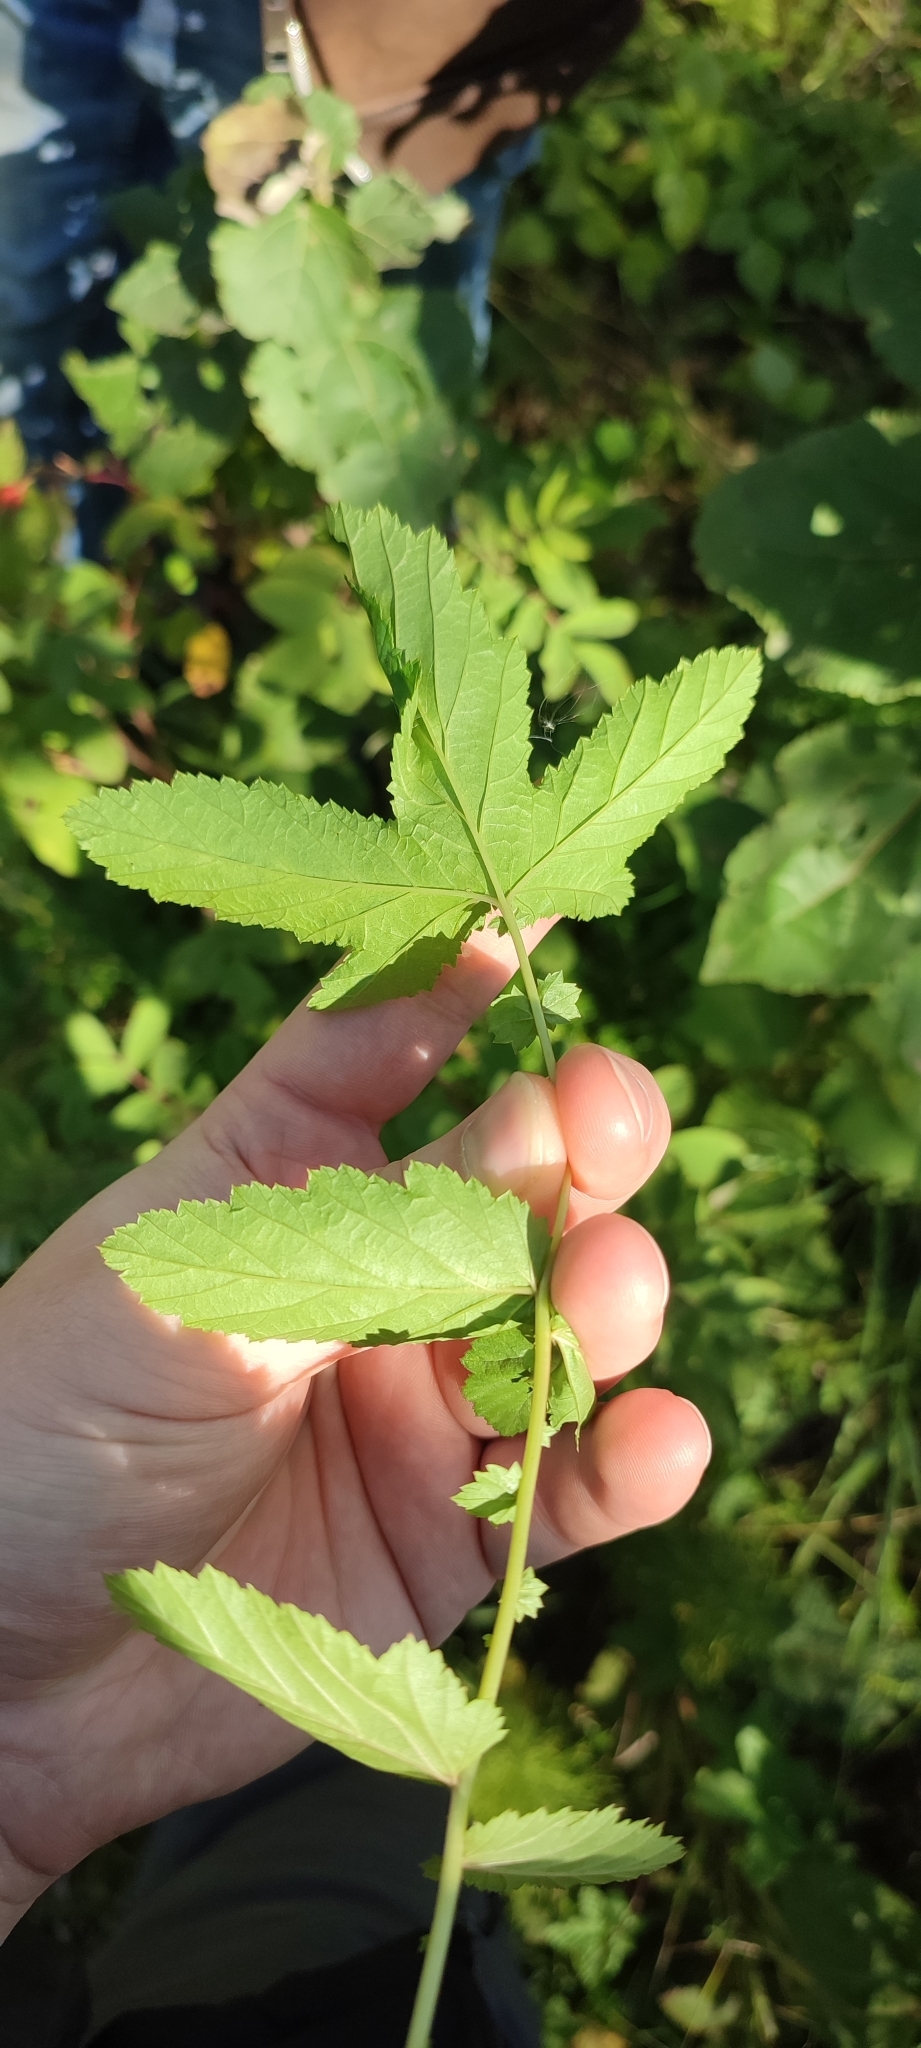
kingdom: Plantae
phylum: Tracheophyta
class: Magnoliopsida
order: Rosales
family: Rosaceae
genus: Filipendula
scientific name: Filipendula ulmaria
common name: Meadowsweet
